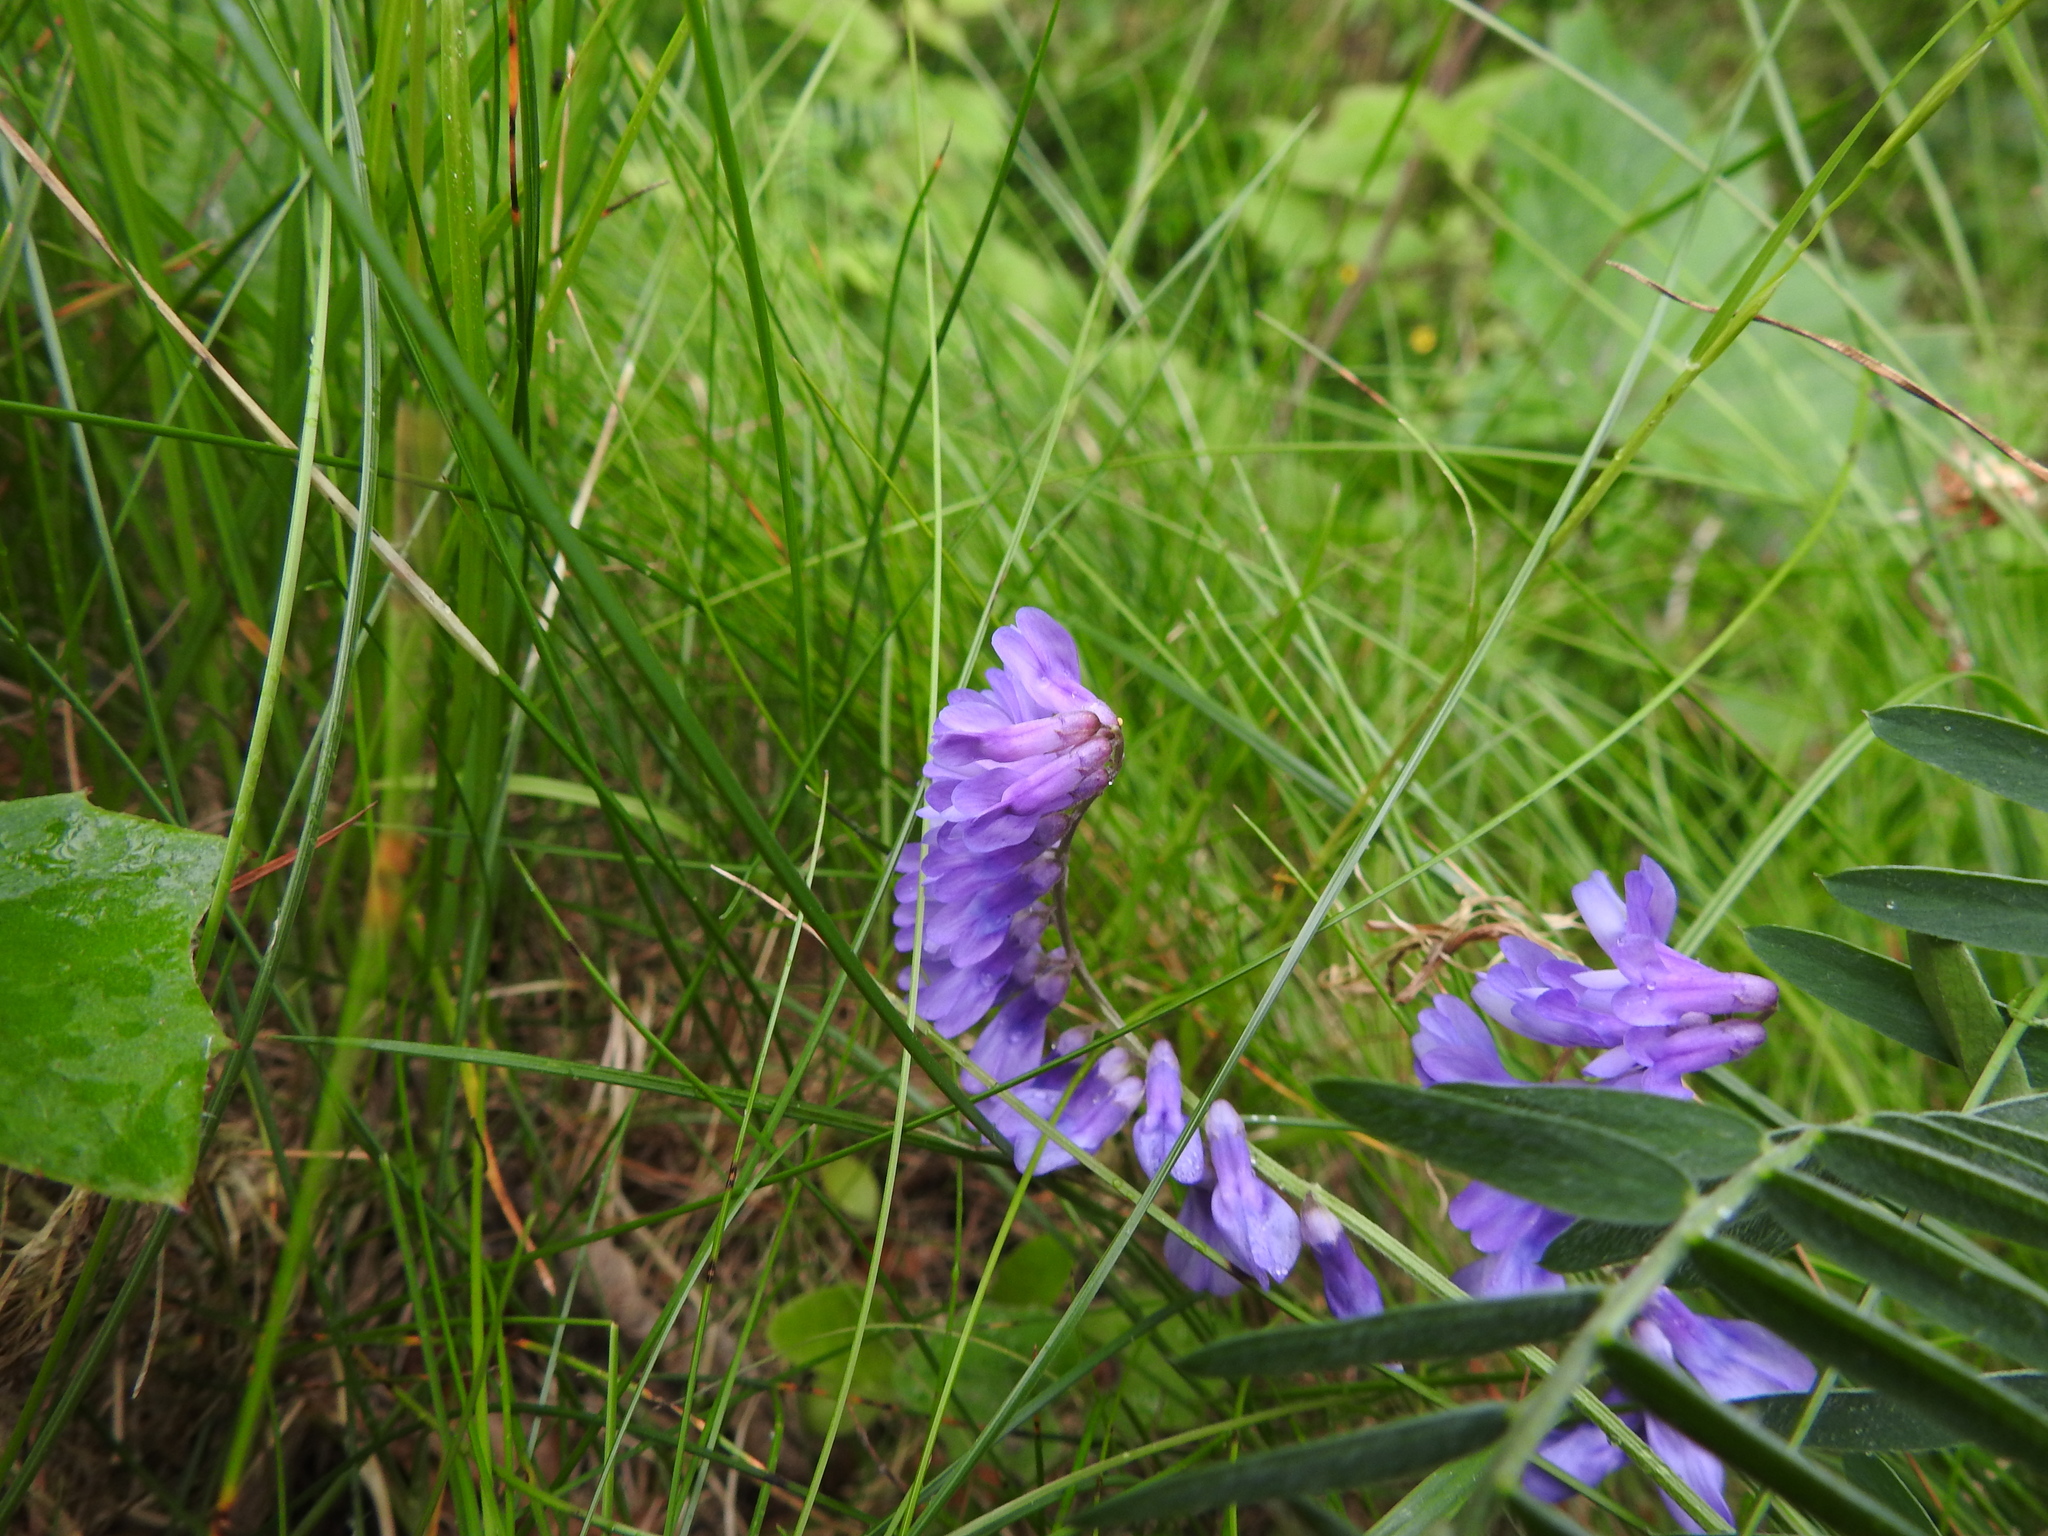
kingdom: Plantae
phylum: Tracheophyta
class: Magnoliopsida
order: Fabales
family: Fabaceae
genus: Vicia
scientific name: Vicia cracca
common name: Bird vetch
